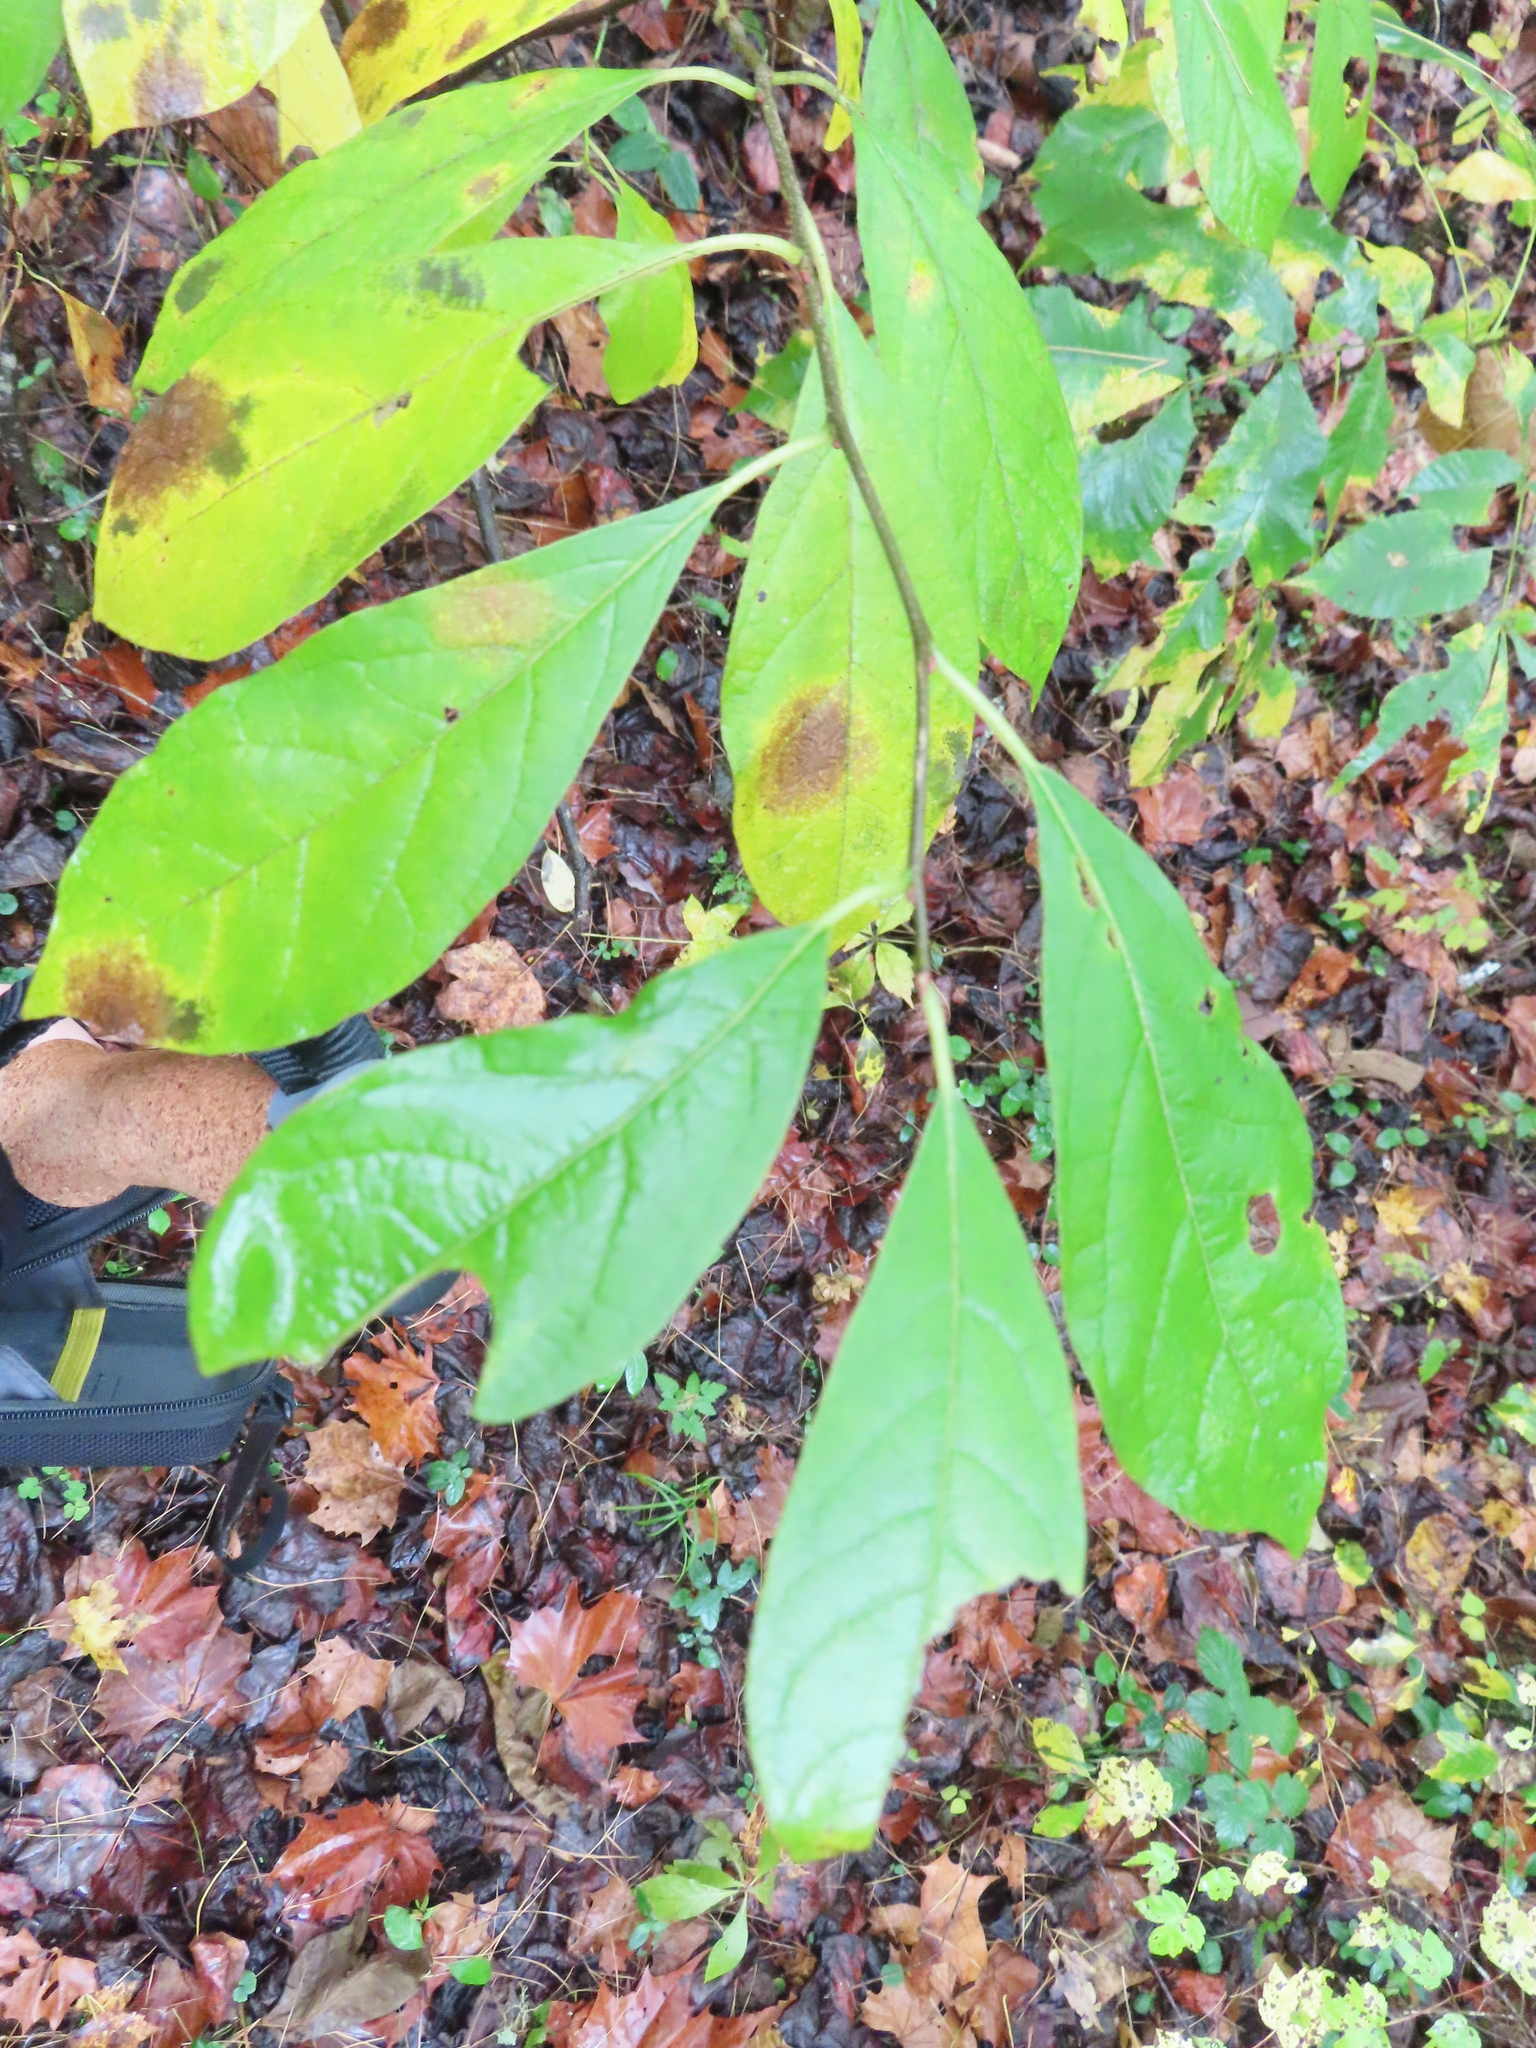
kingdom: Plantae
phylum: Tracheophyta
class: Magnoliopsida
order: Laurales
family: Lauraceae
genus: Lindera
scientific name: Lindera benzoin
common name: Spicebush
